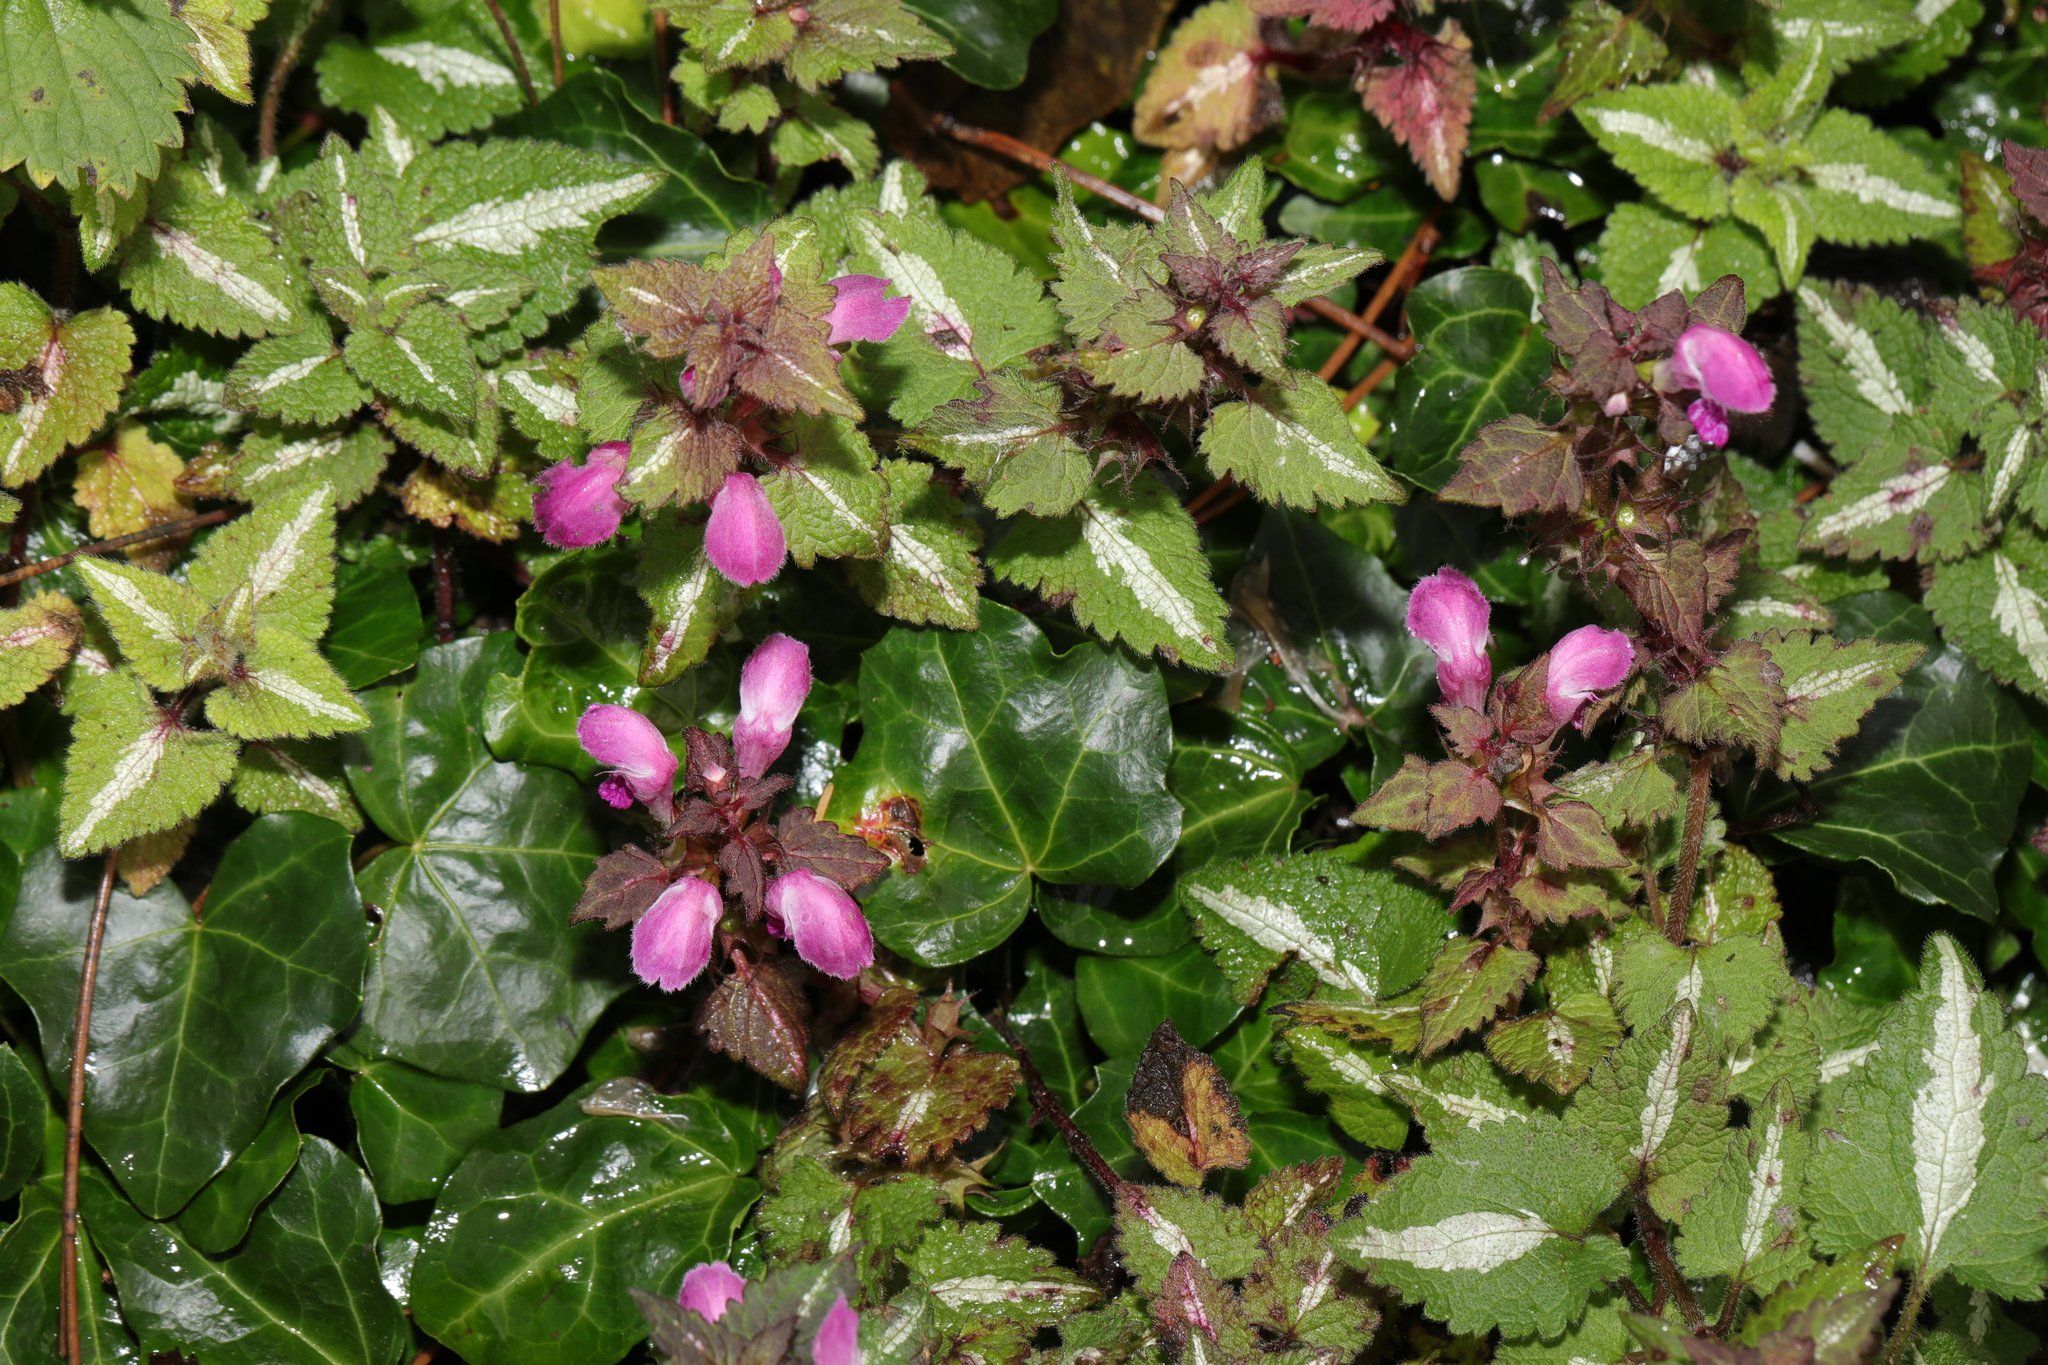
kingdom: Plantae
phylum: Tracheophyta
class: Magnoliopsida
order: Lamiales
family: Lamiaceae
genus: Lamium
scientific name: Lamium maculatum
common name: Spotted dead-nettle
